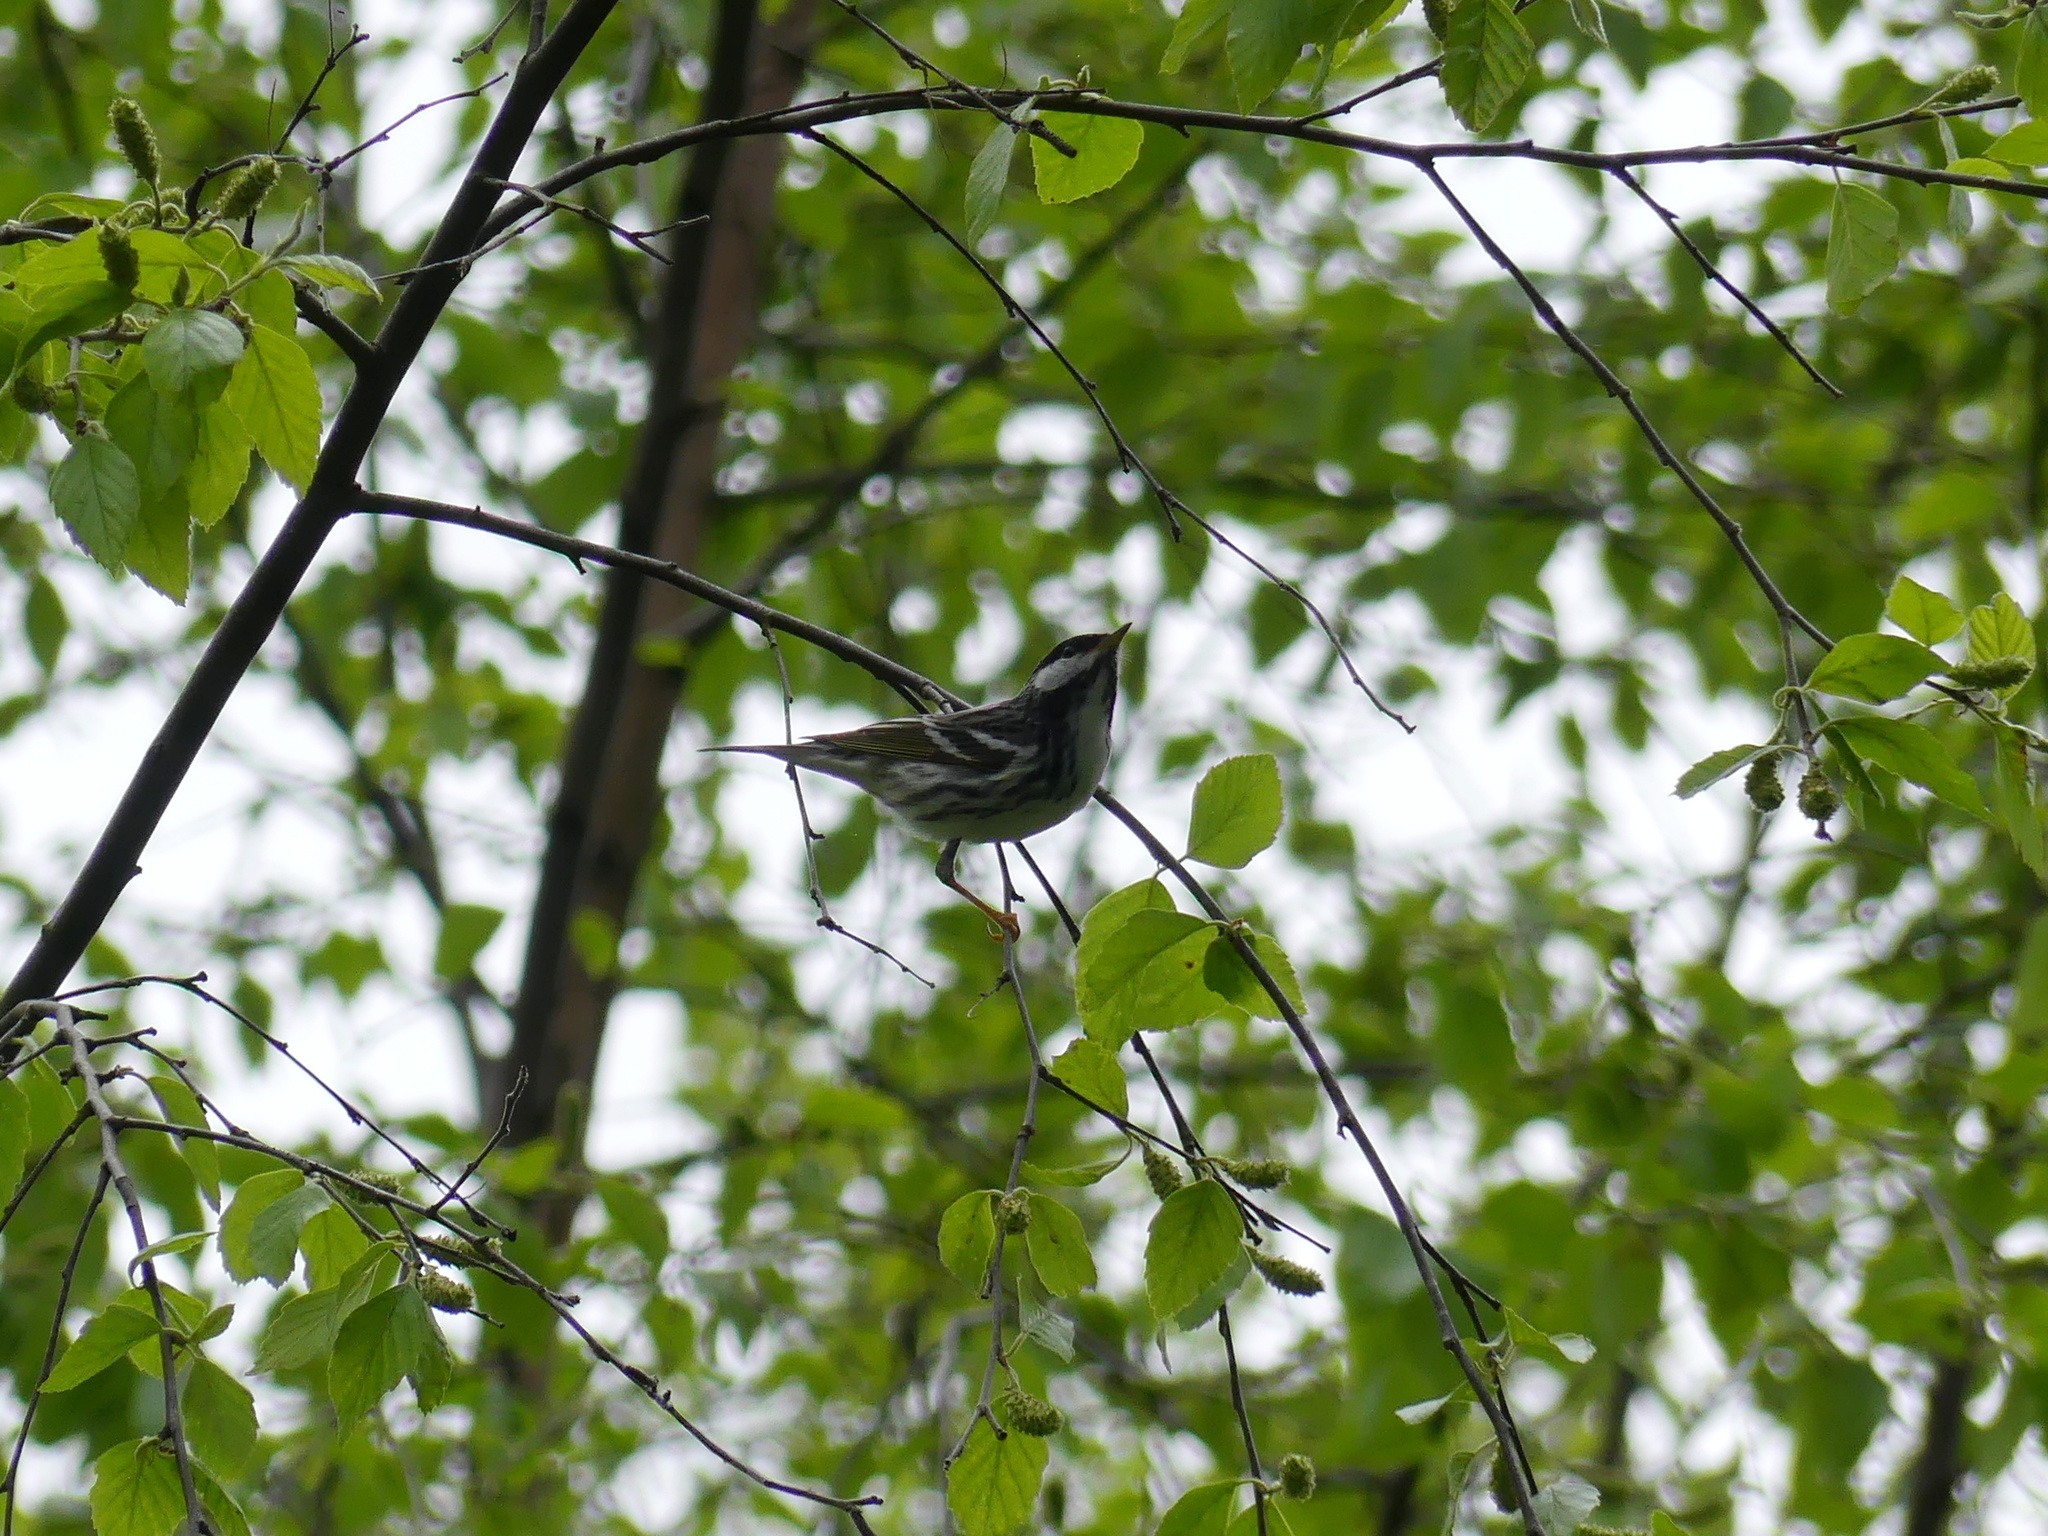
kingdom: Animalia
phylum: Chordata
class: Aves
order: Passeriformes
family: Parulidae
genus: Setophaga
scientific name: Setophaga striata
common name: Blackpoll warbler
